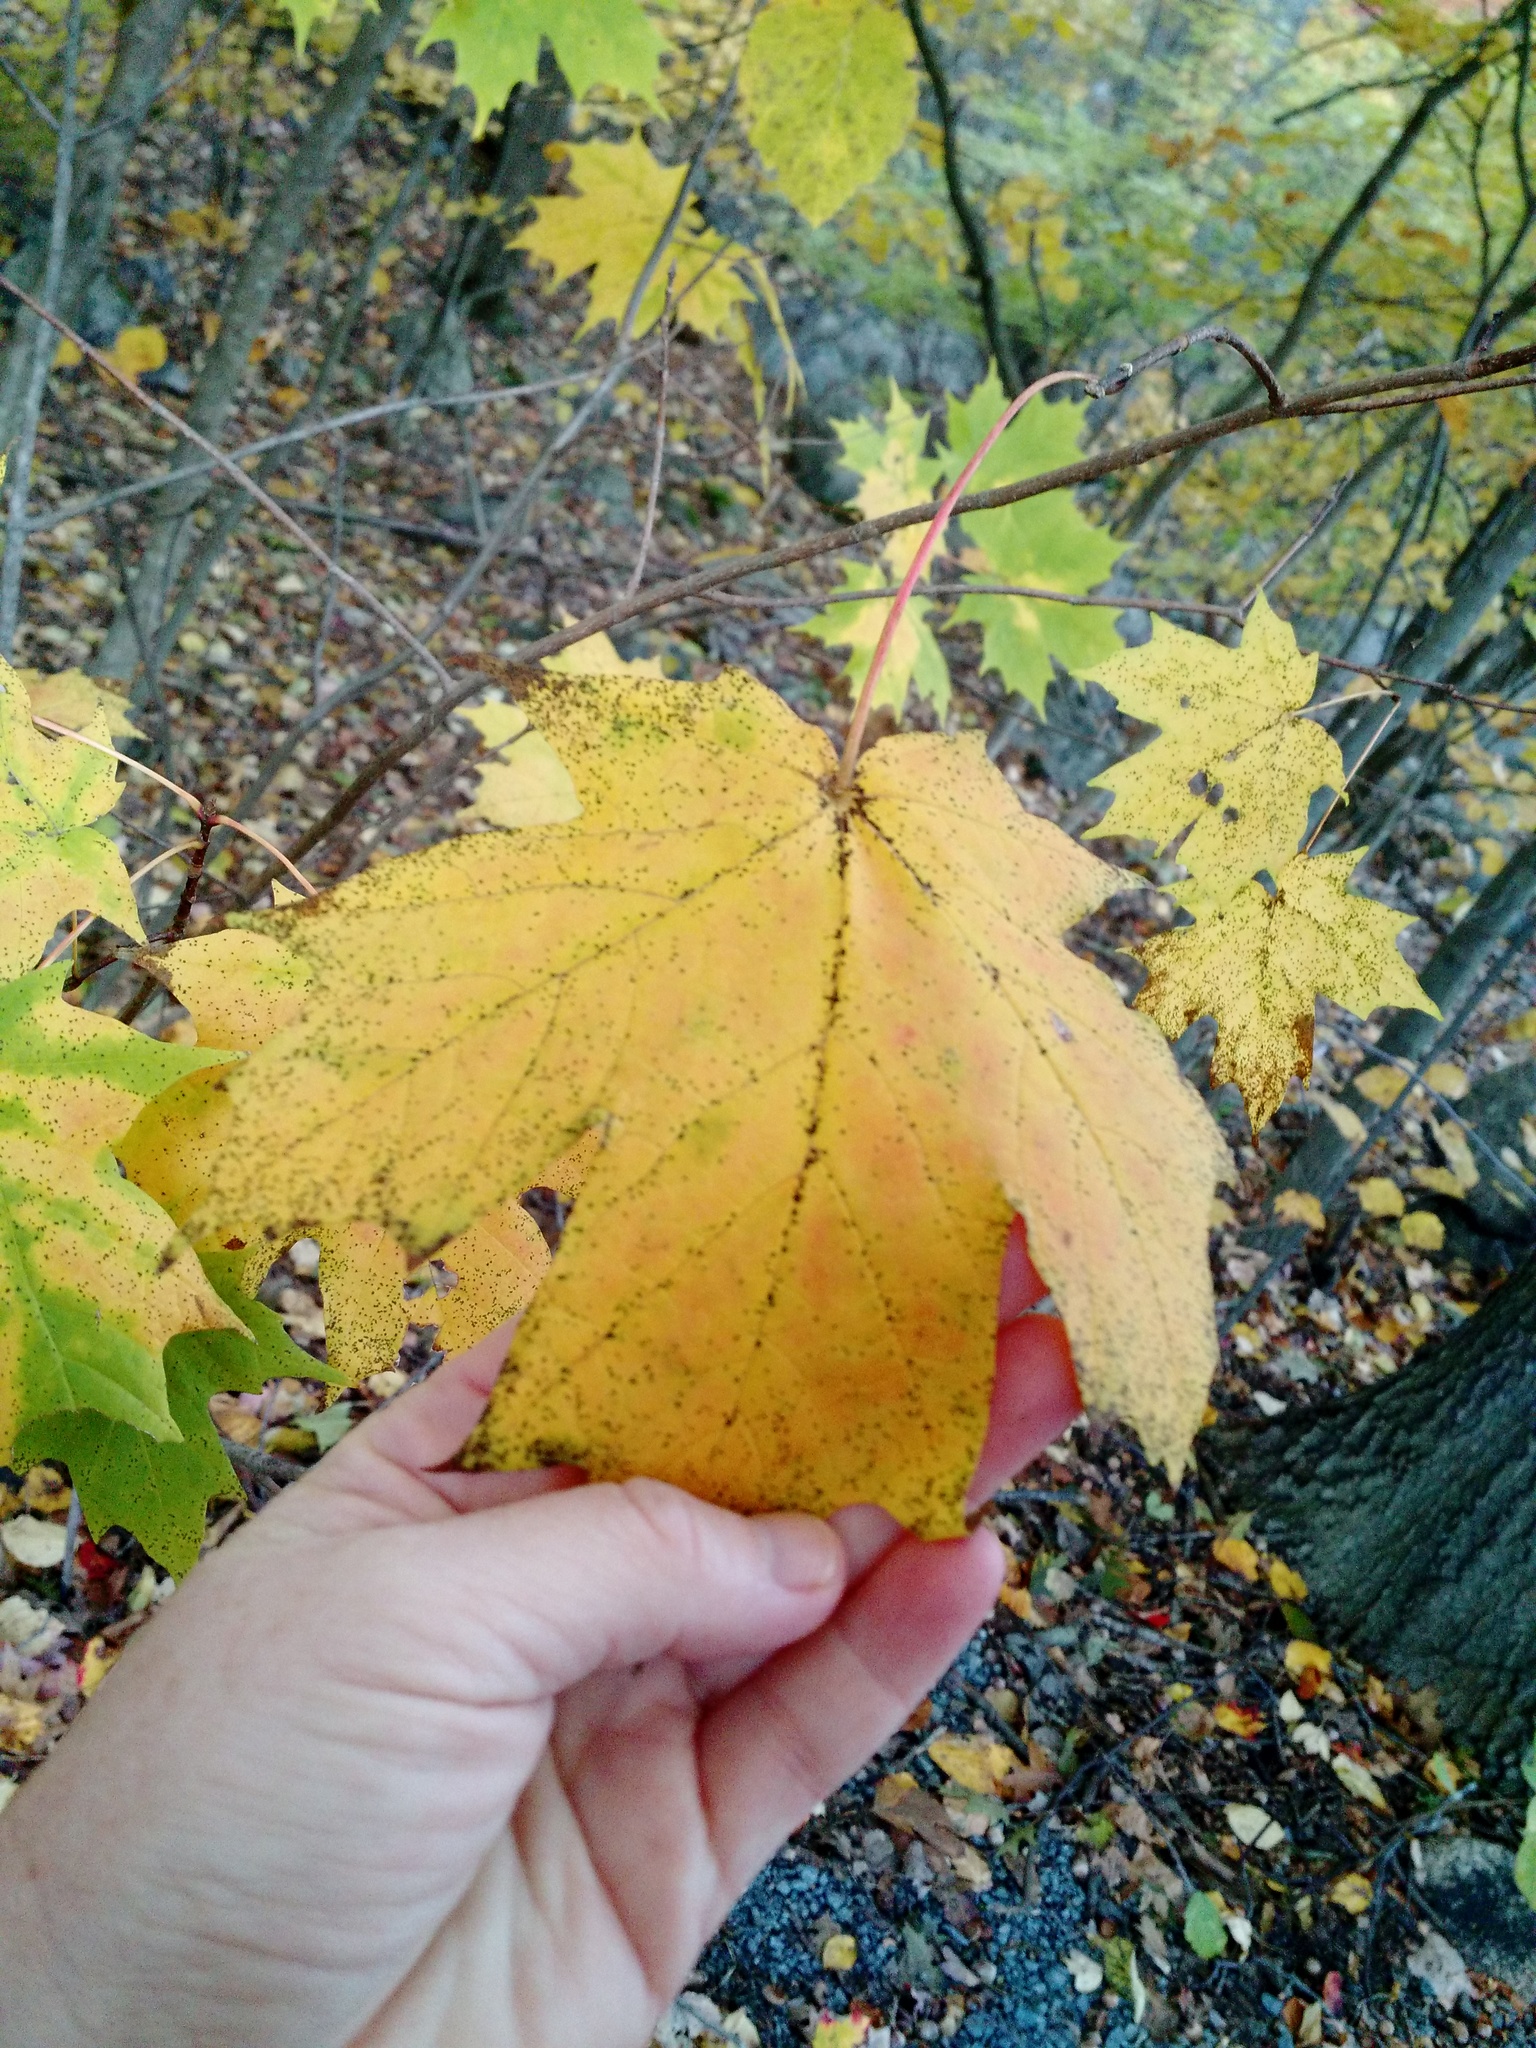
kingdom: Plantae
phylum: Tracheophyta
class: Magnoliopsida
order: Sapindales
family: Sapindaceae
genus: Acer
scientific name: Acer saccharum
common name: Sugar maple
